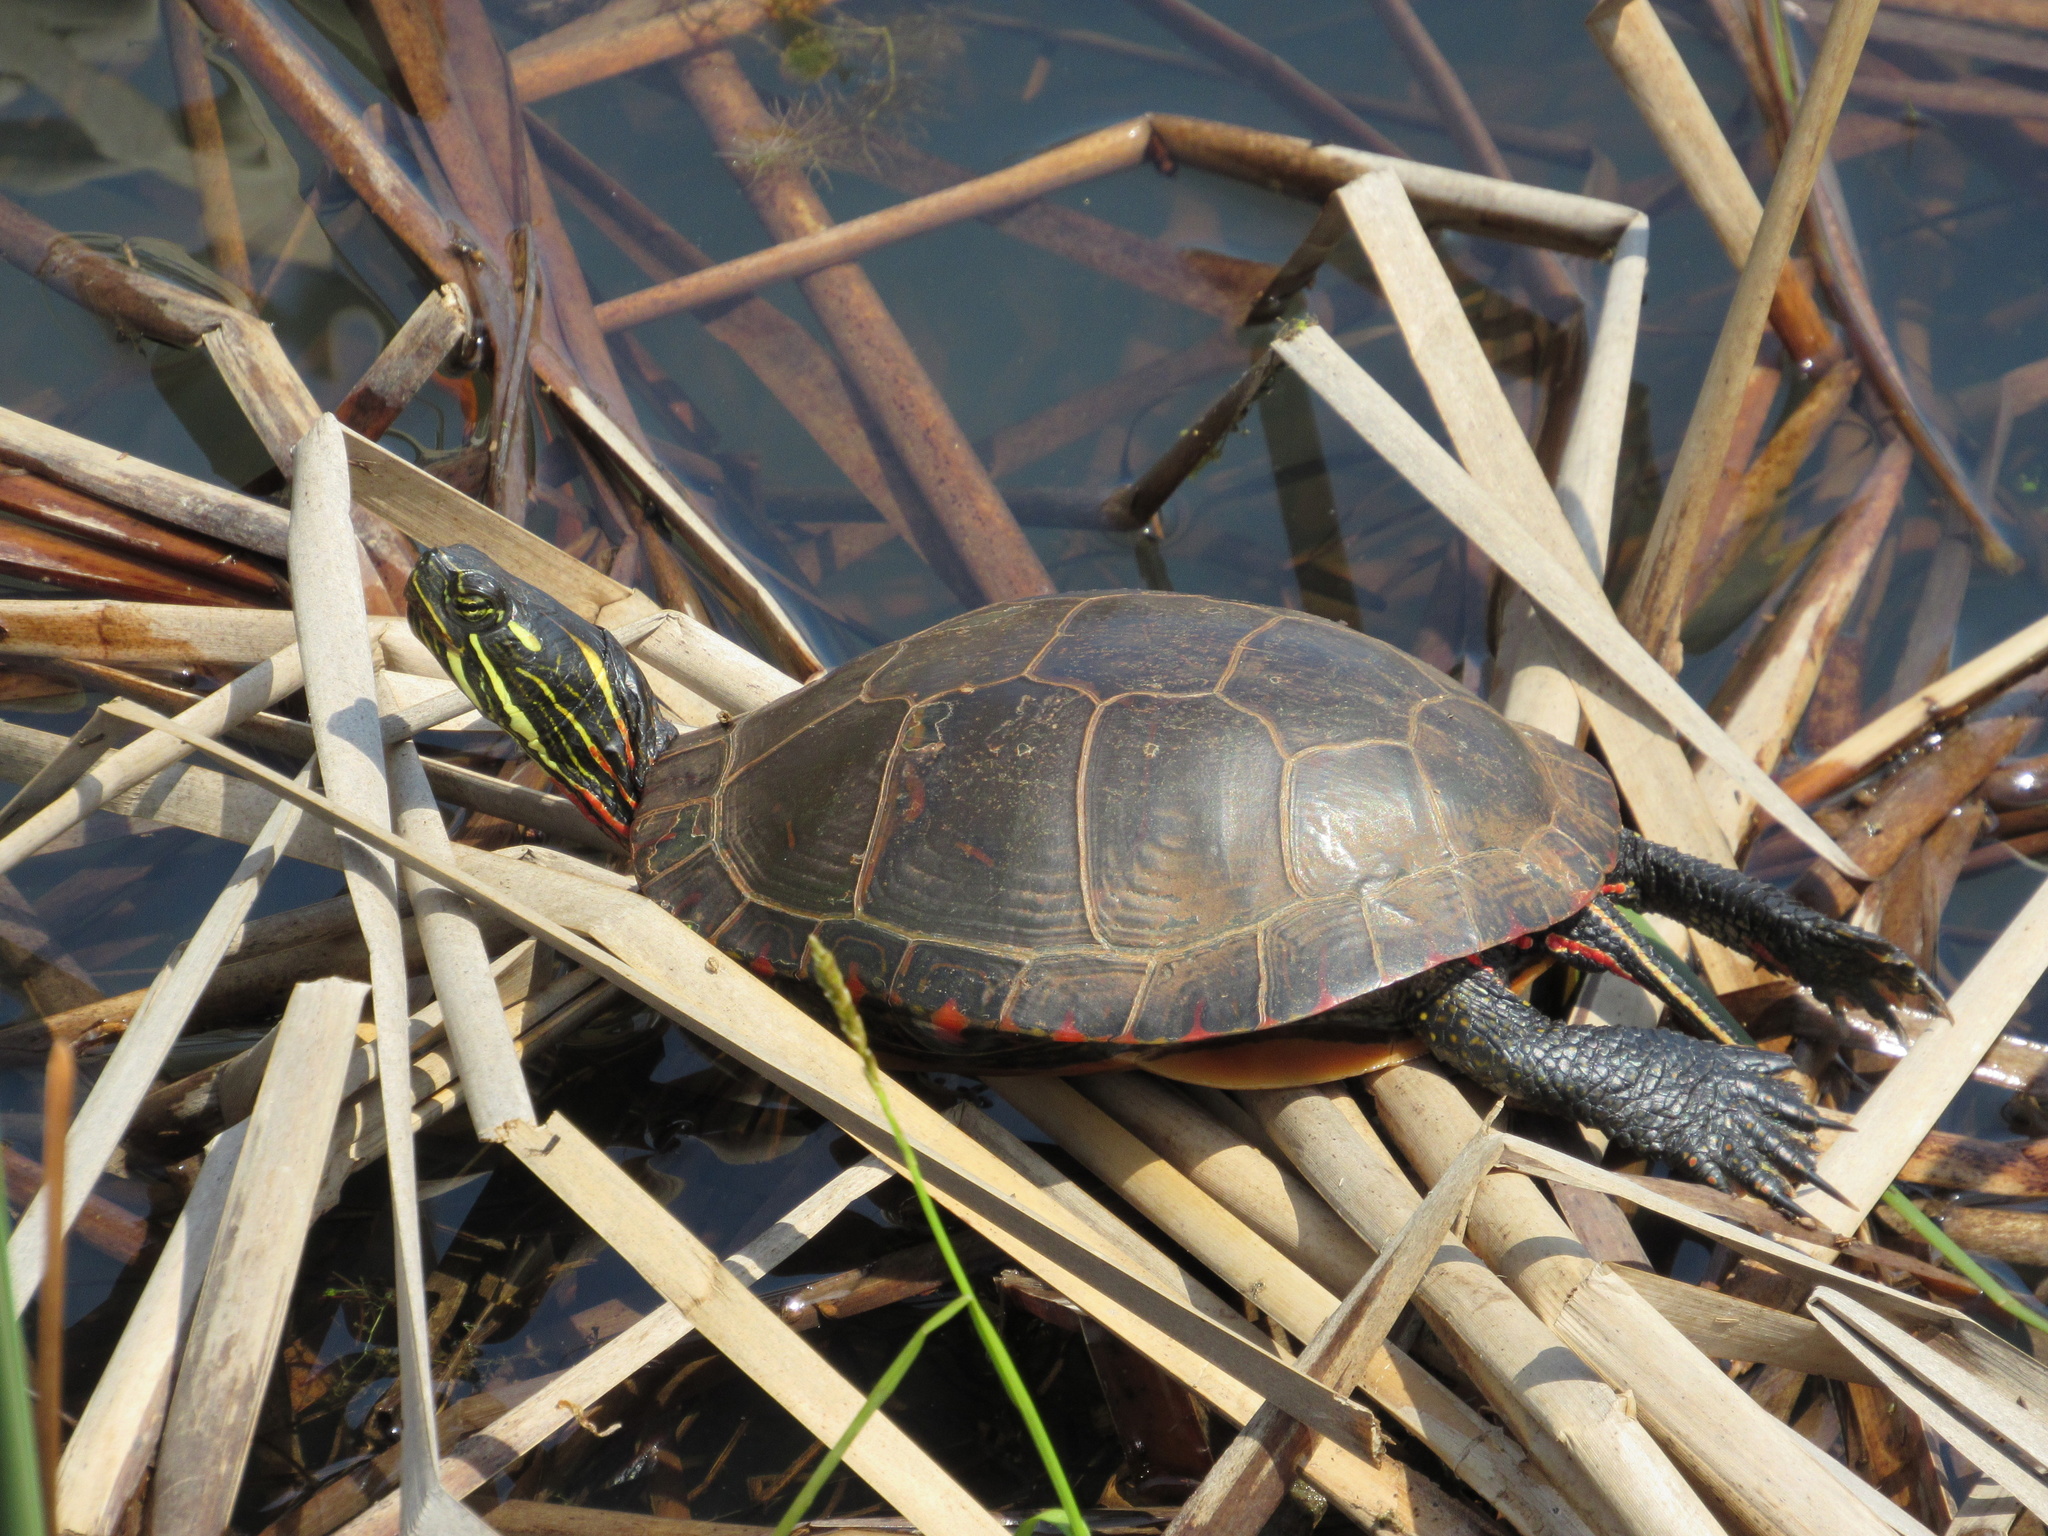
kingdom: Animalia
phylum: Chordata
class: Testudines
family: Emydidae
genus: Chrysemys
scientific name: Chrysemys picta
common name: Painted turtle
